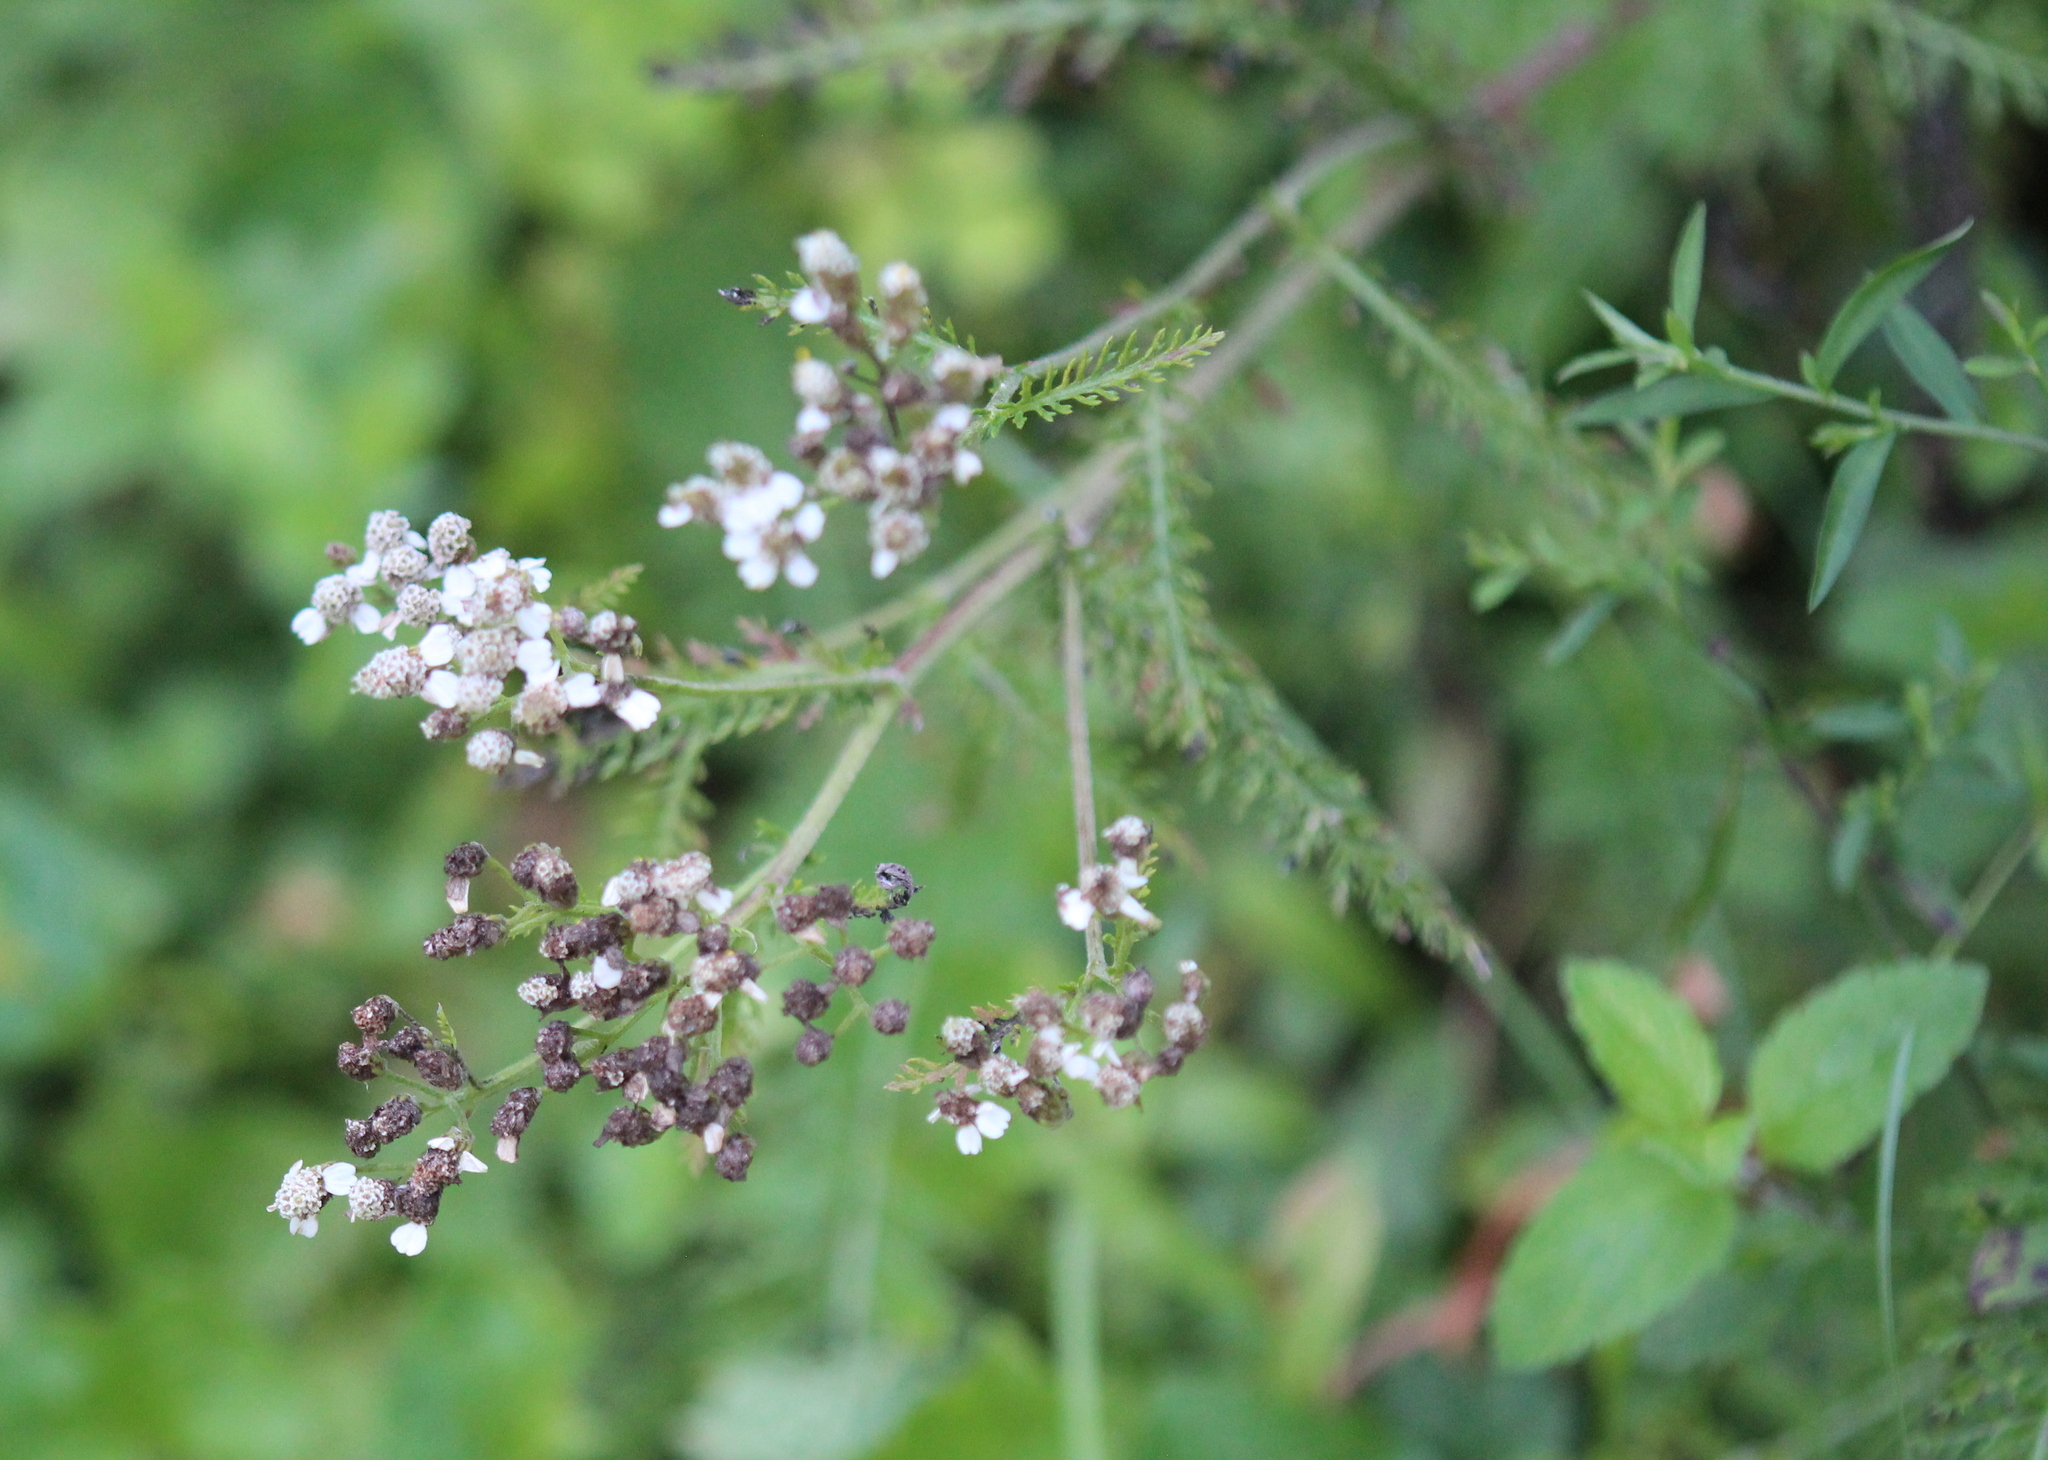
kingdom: Plantae
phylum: Tracheophyta
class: Magnoliopsida
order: Asterales
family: Asteraceae
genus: Achillea
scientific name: Achillea millefolium
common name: Yarrow
